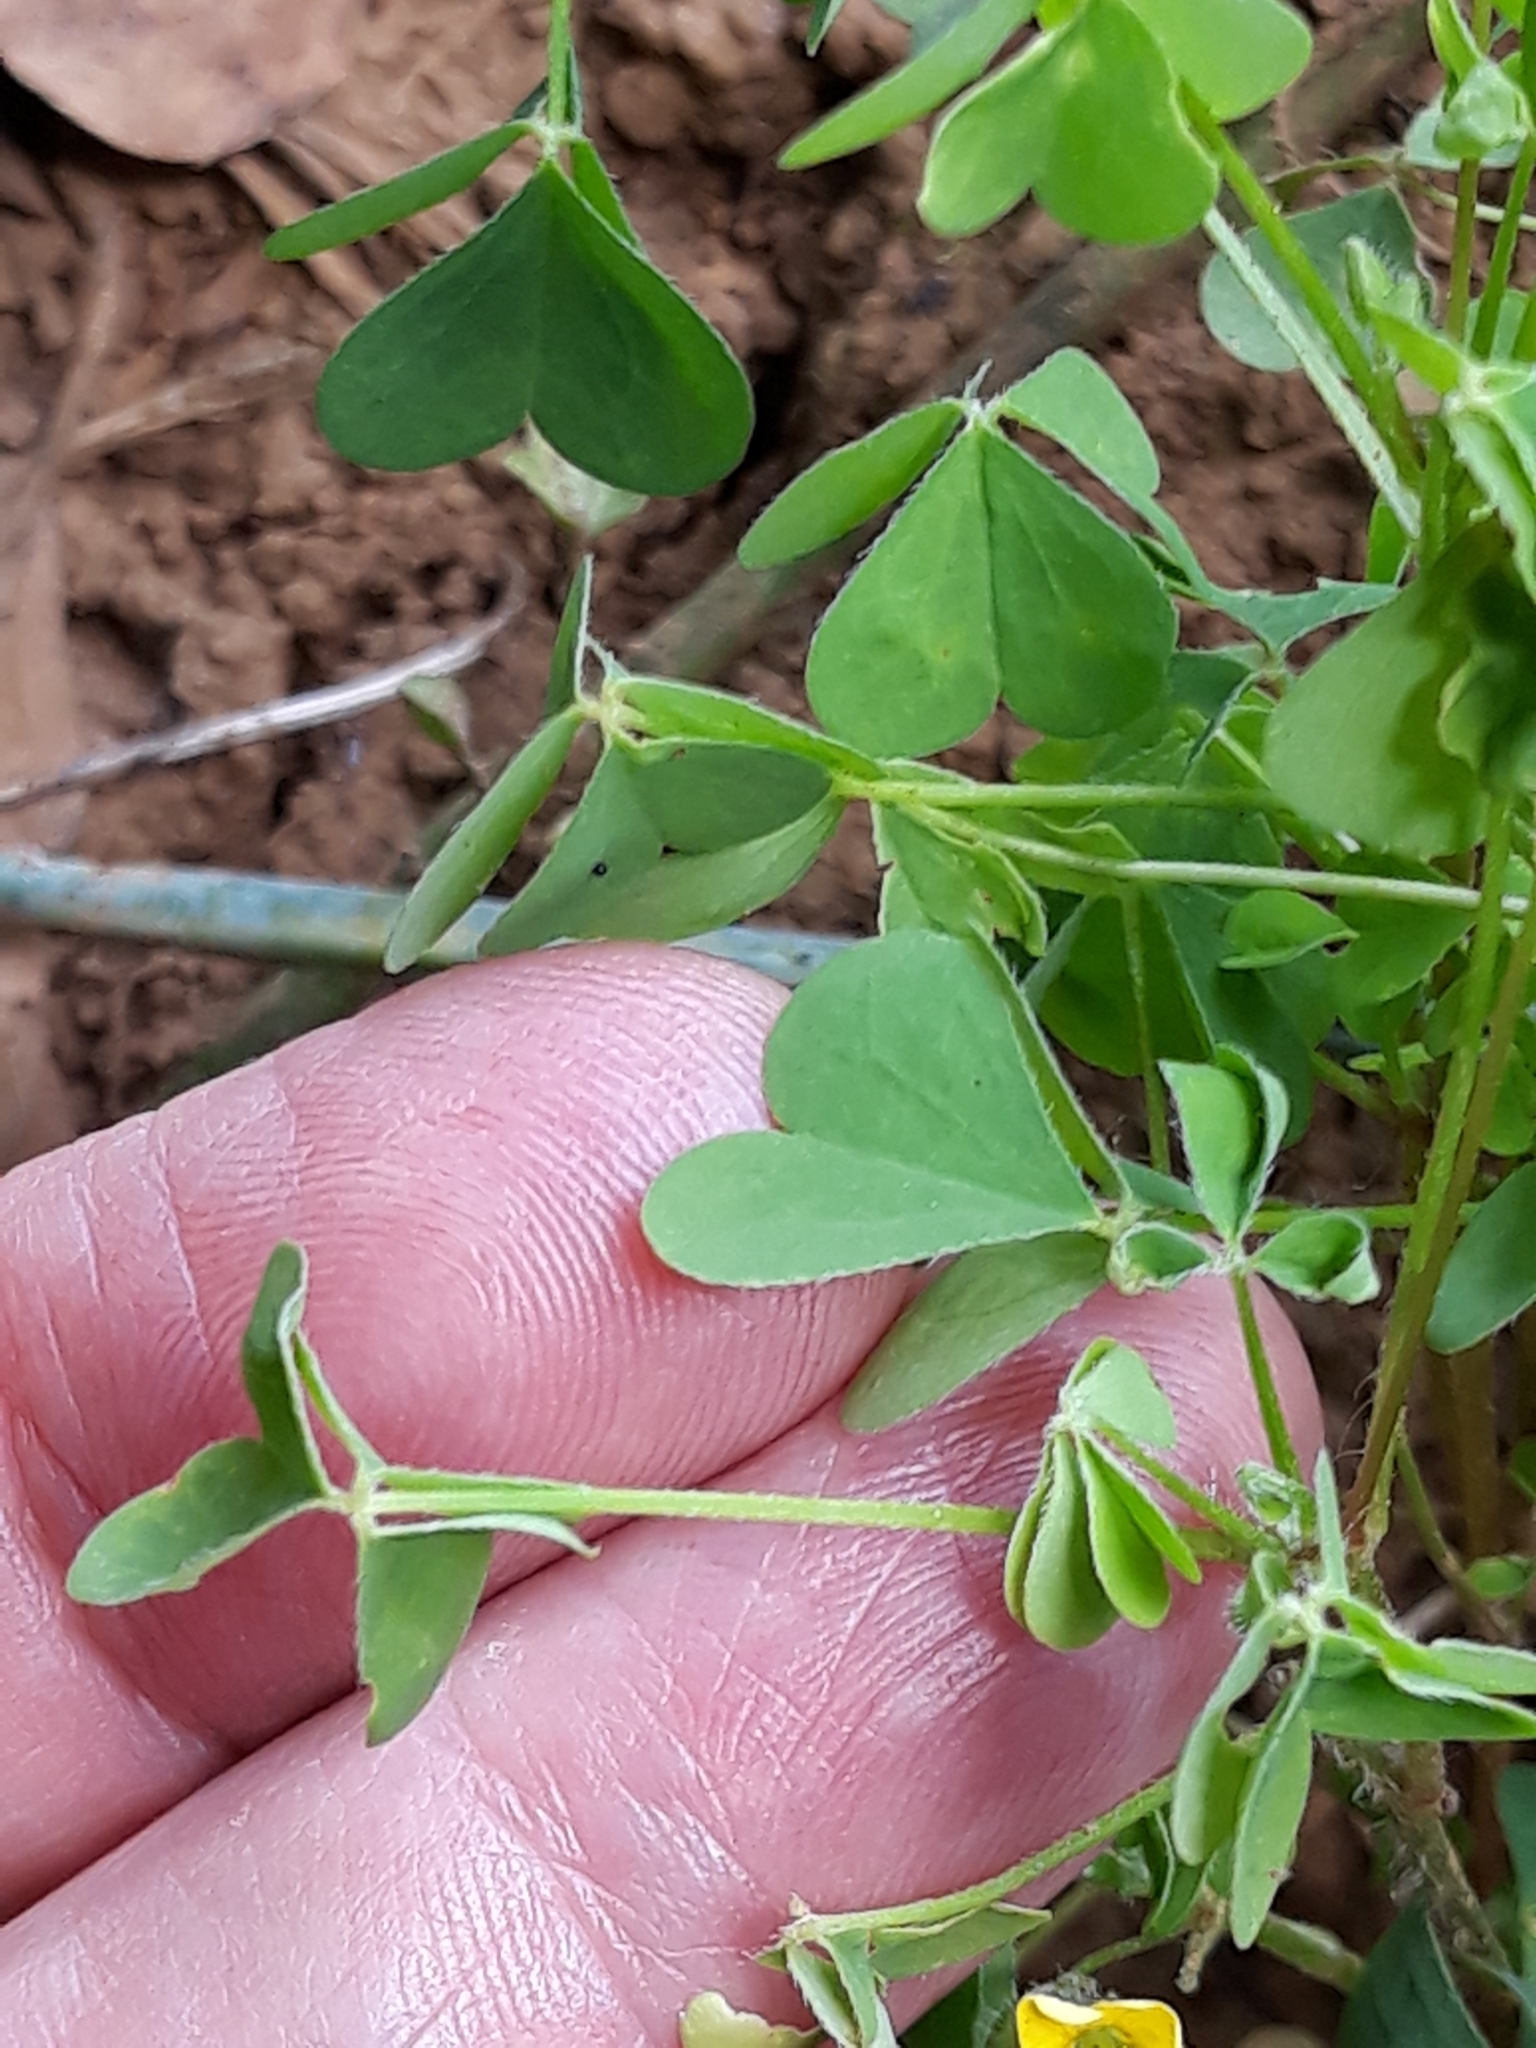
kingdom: Plantae
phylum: Tracheophyta
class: Magnoliopsida
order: Oxalidales
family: Oxalidaceae
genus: Oxalis
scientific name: Oxalis stricta
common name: Upright yellow-sorrel
